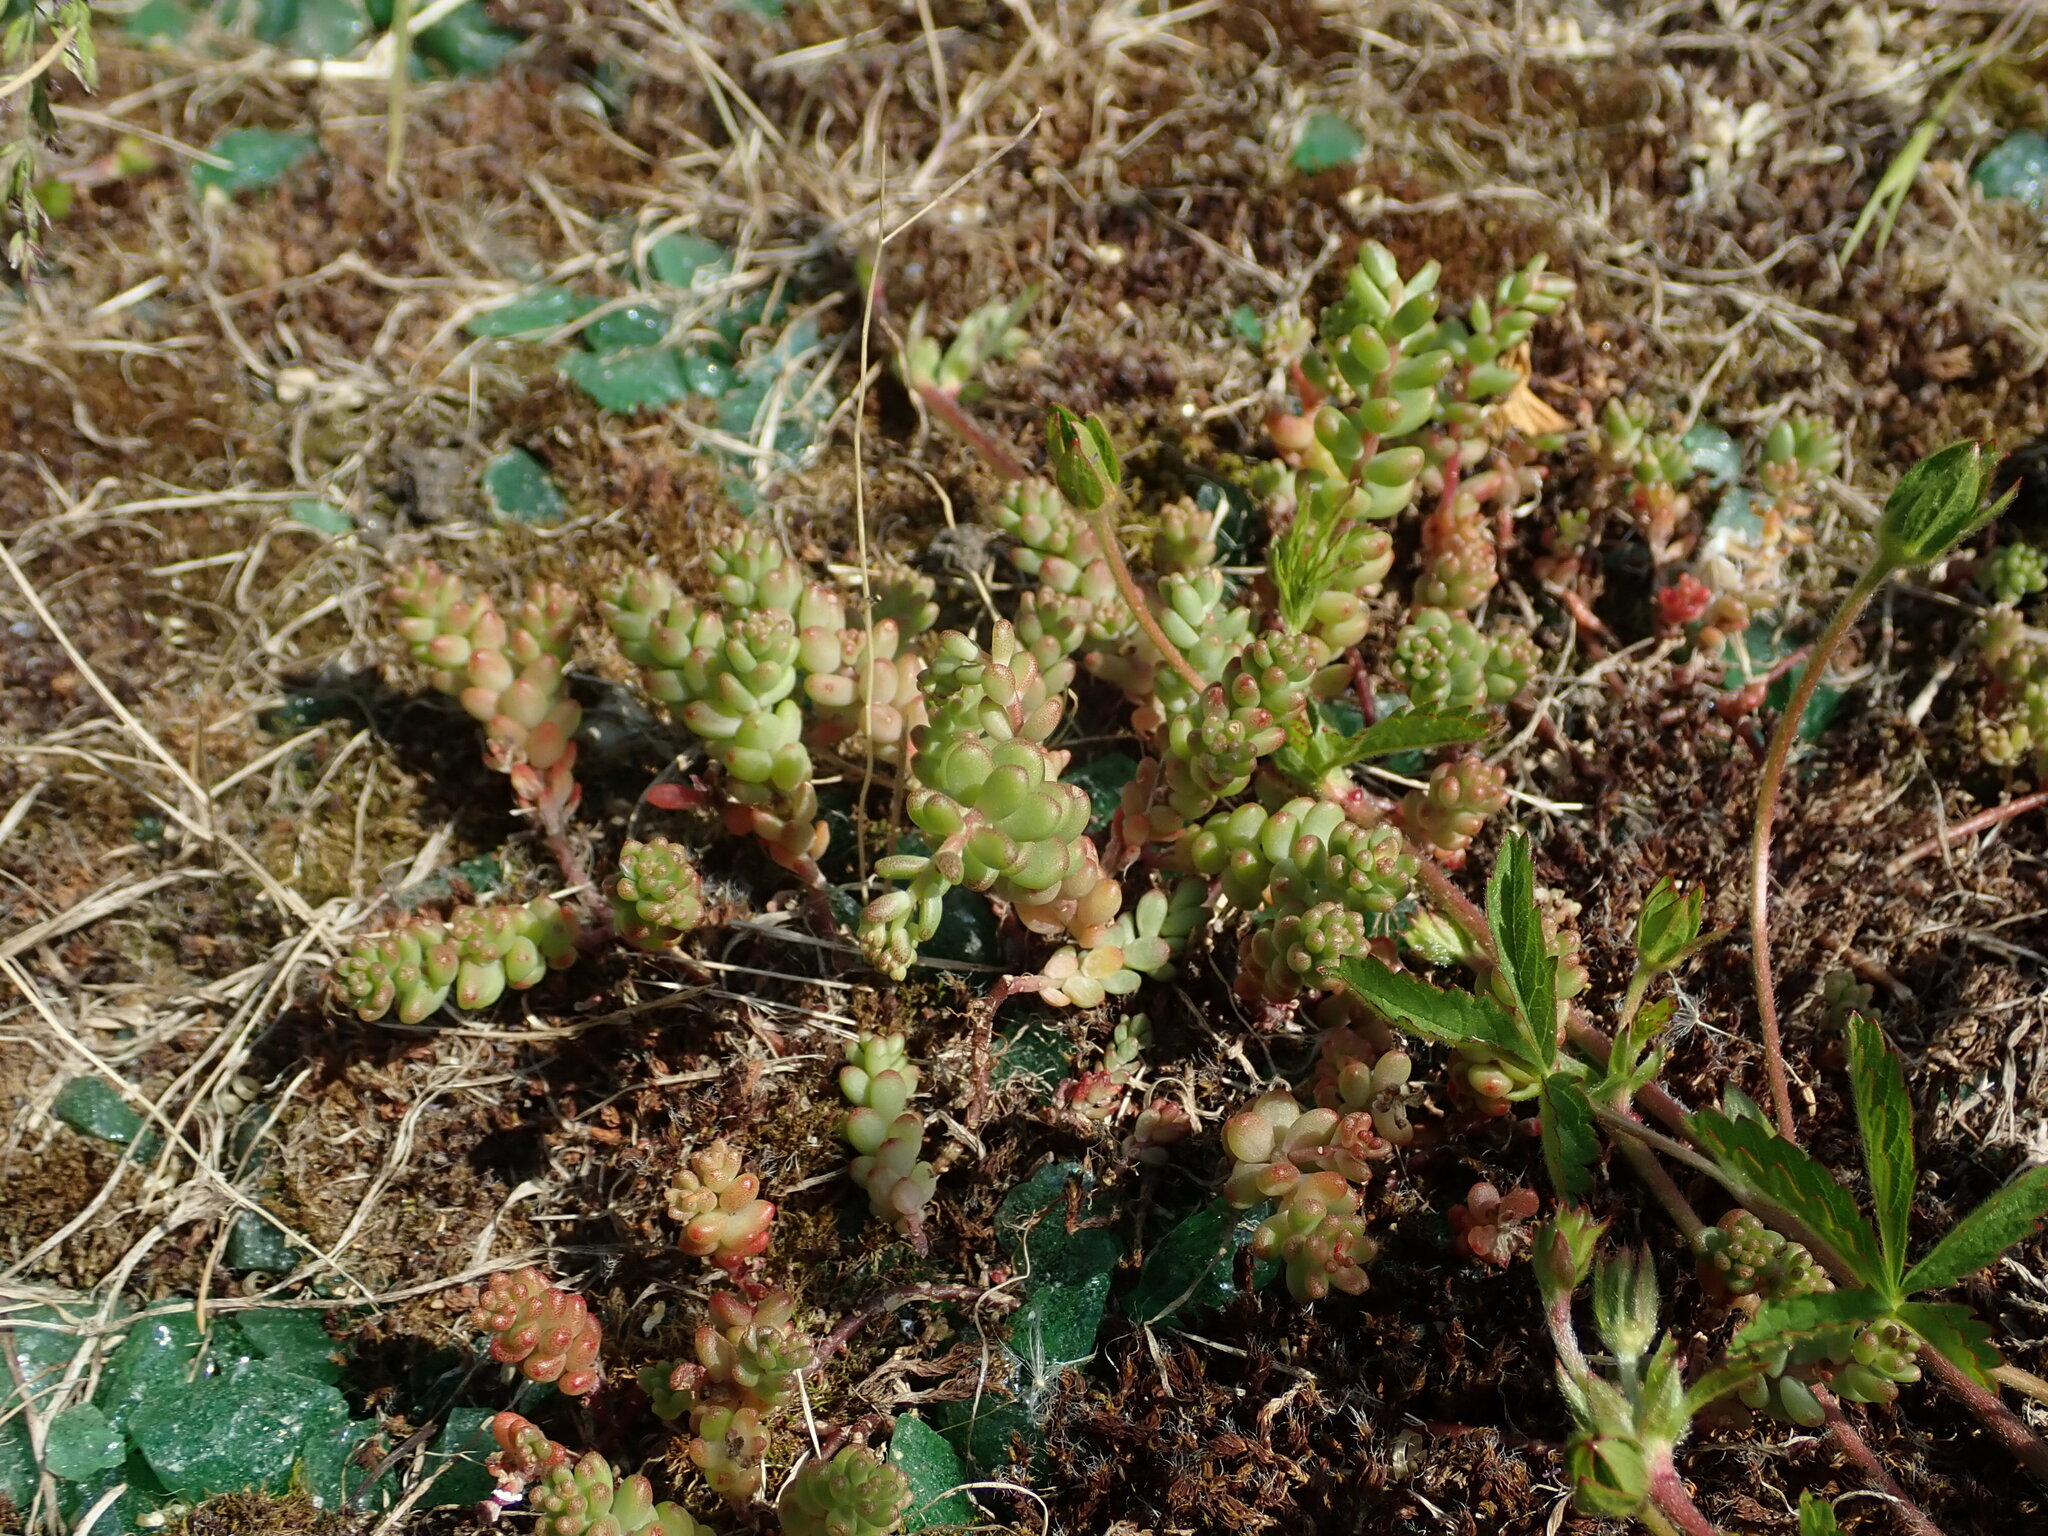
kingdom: Plantae
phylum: Tracheophyta
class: Magnoliopsida
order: Saxifragales
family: Crassulaceae
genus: Sedum
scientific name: Sedum album
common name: White stonecrop
